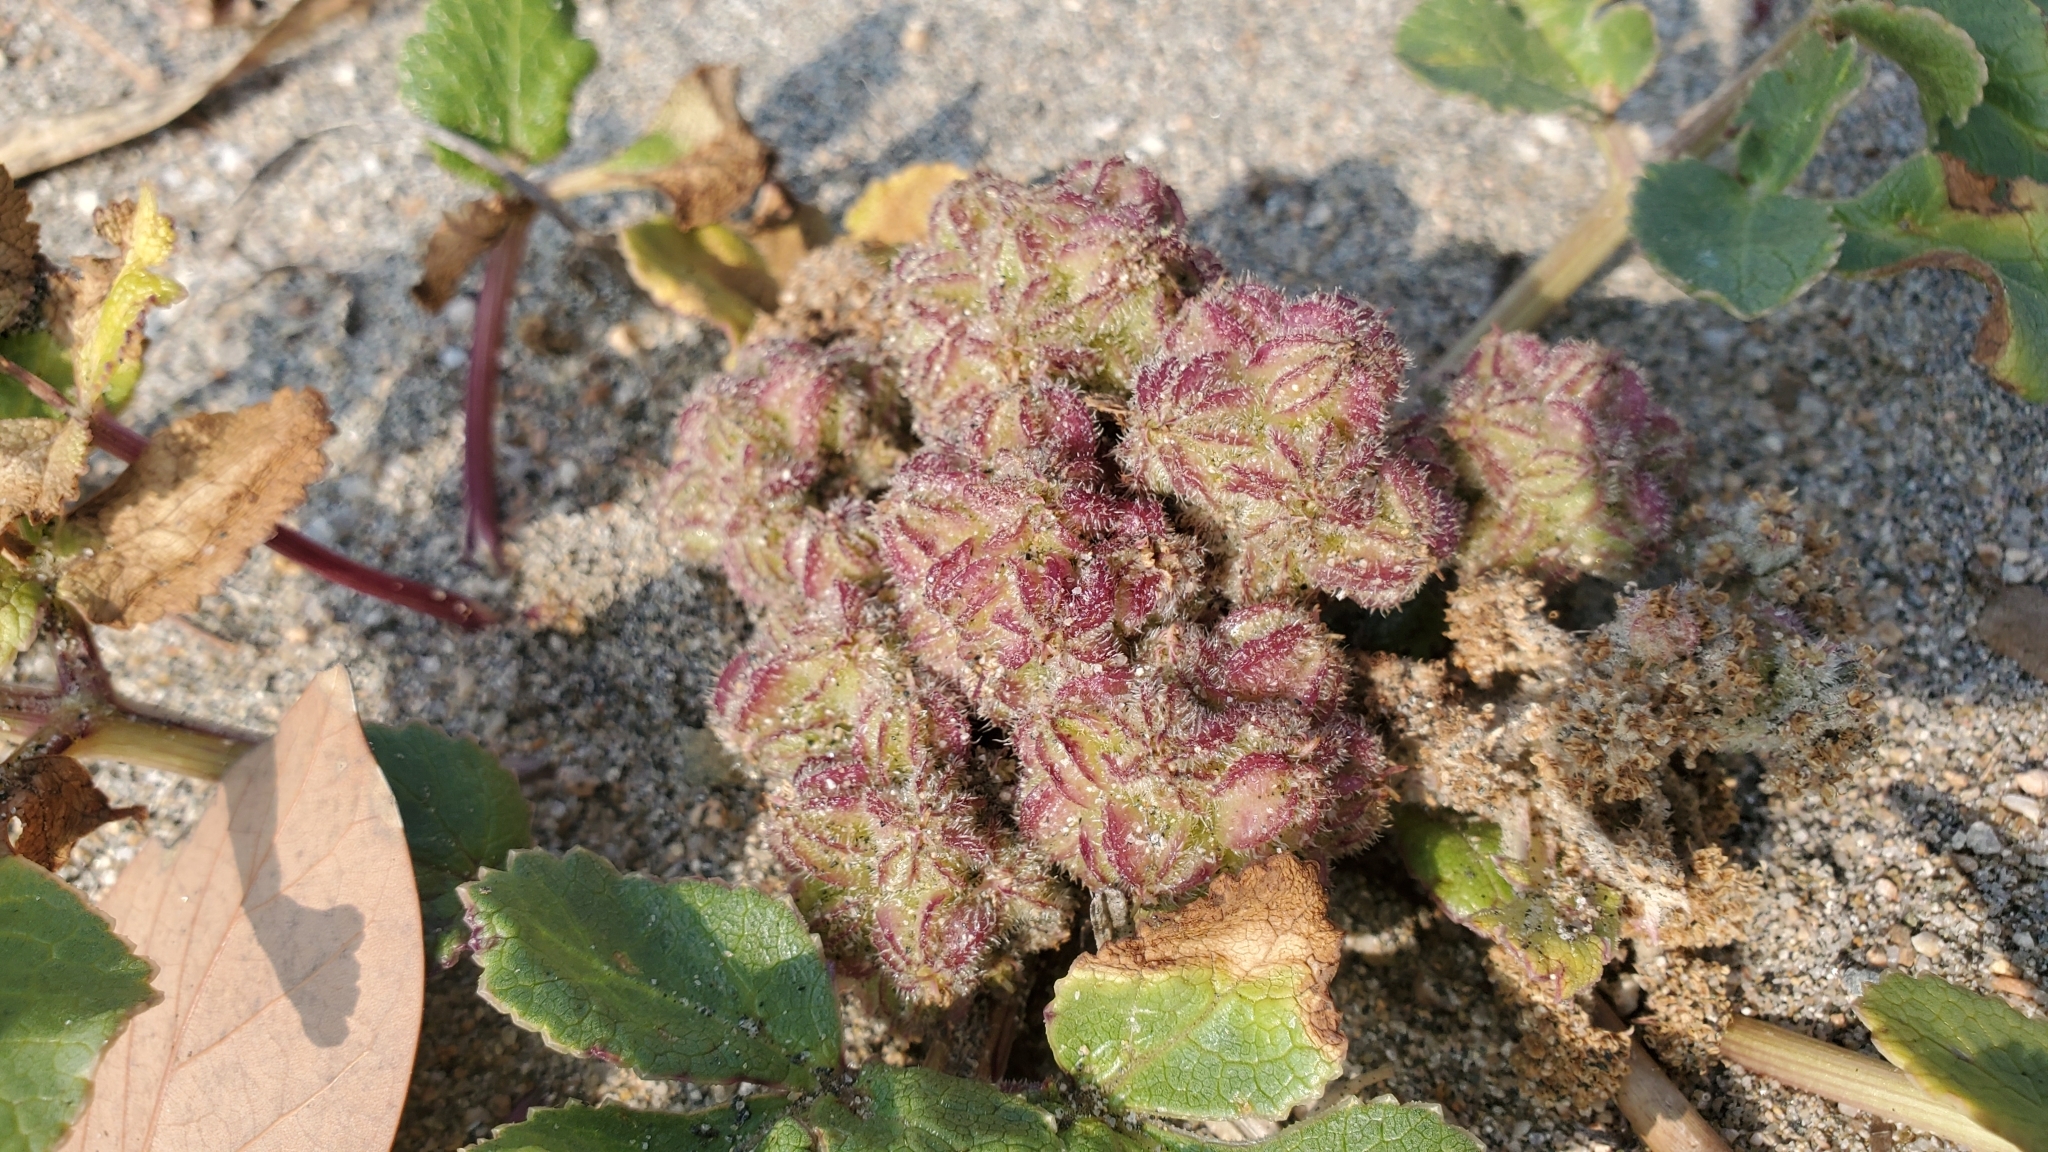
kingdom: Plantae
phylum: Tracheophyta
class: Magnoliopsida
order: Apiales
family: Apiaceae
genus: Glehnia
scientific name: Glehnia littoralis
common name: Beach silvertop
